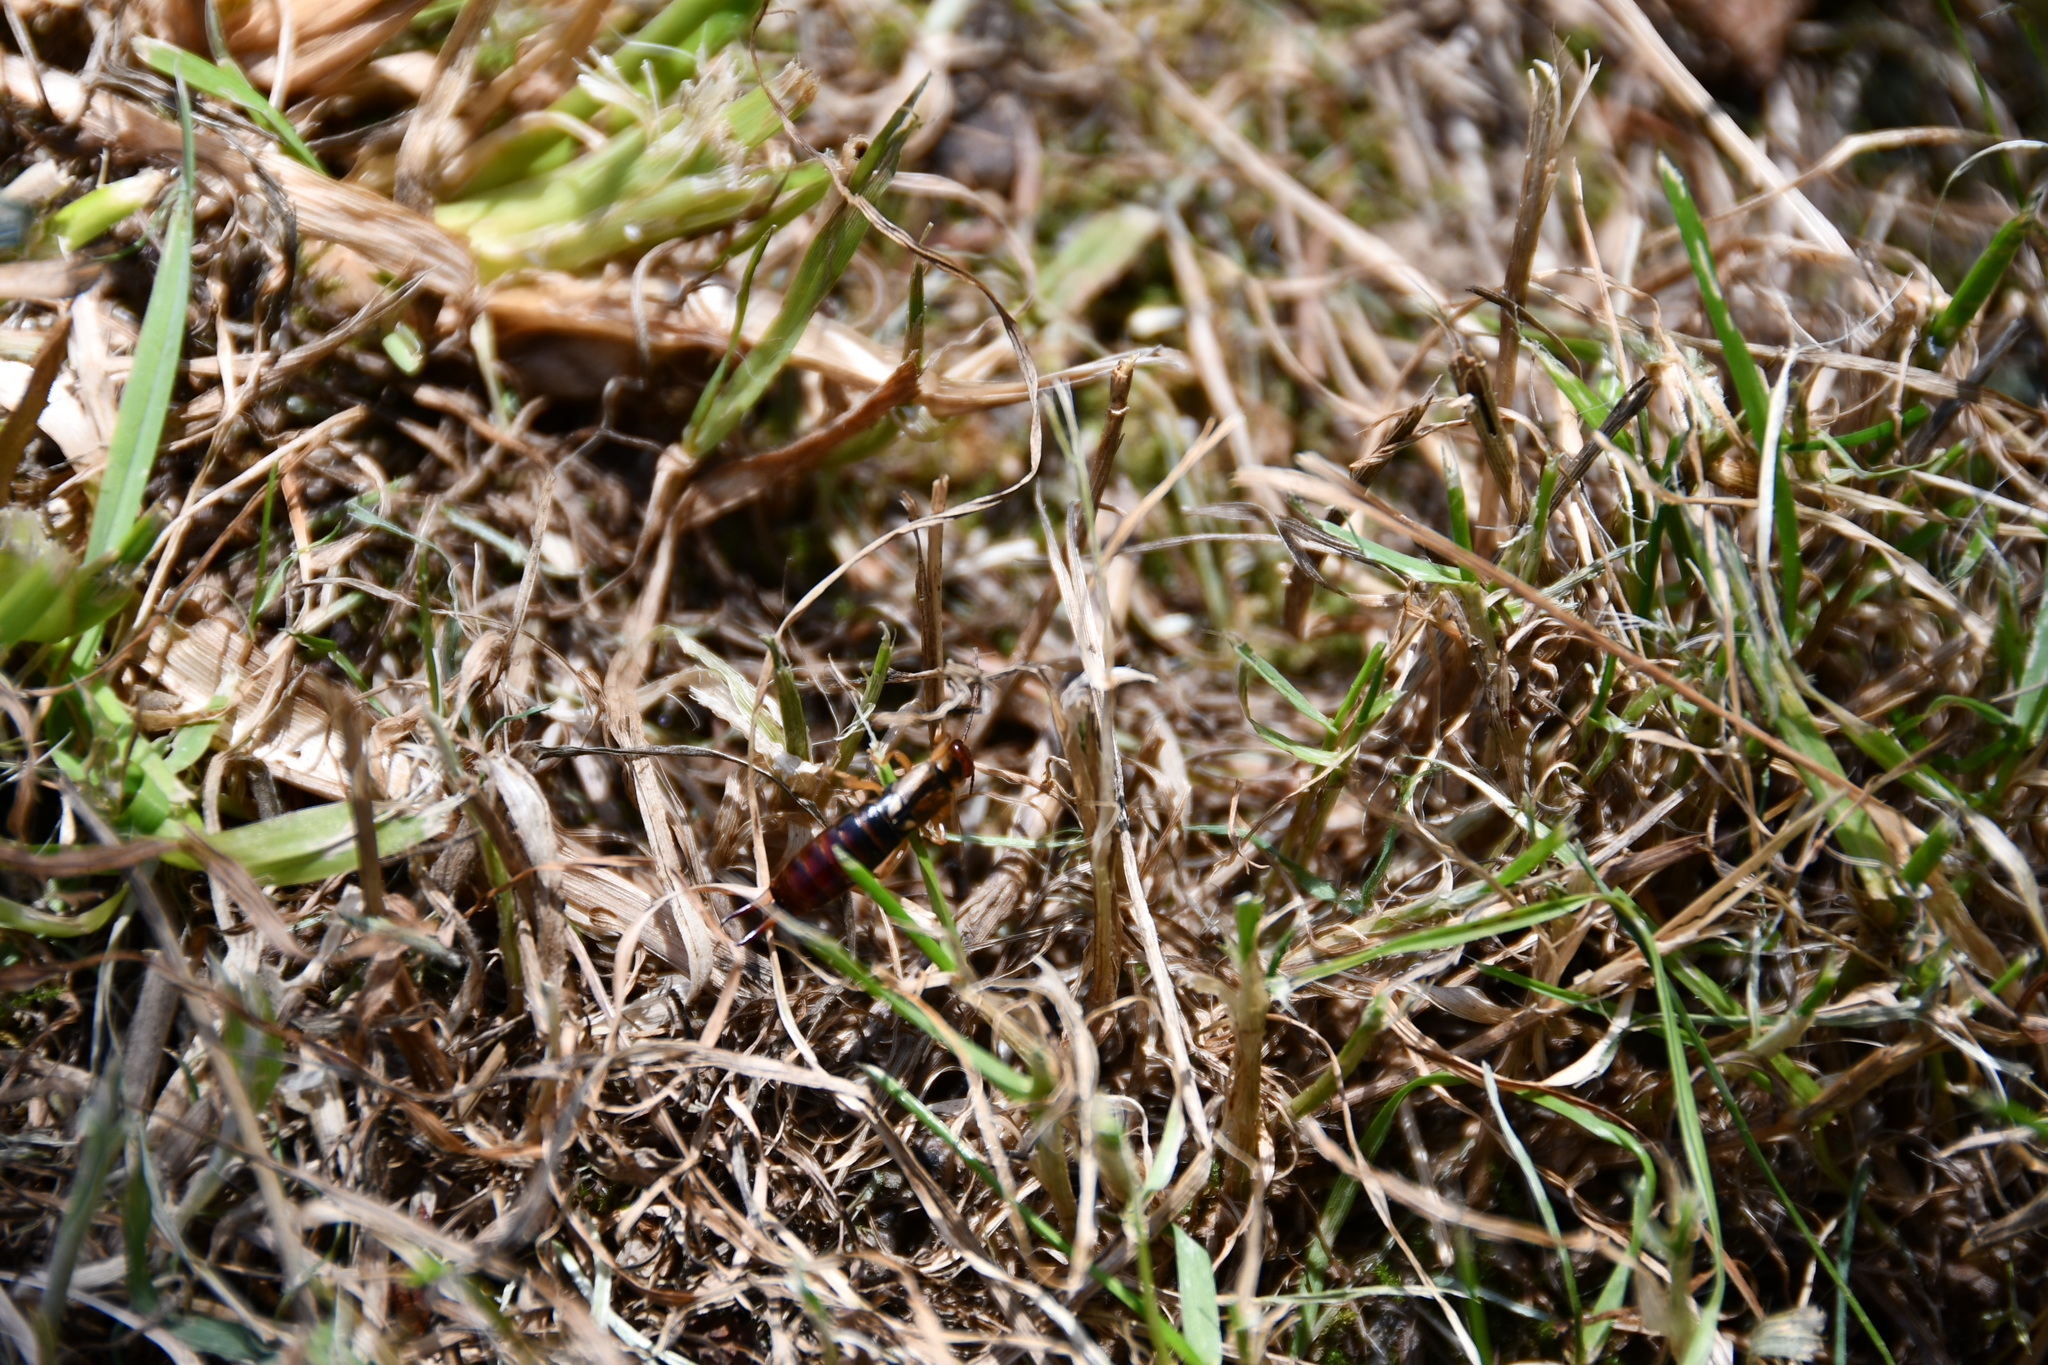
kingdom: Animalia
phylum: Arthropoda
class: Insecta
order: Dermaptera
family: Forficulidae
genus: Forficula
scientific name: Forficula
